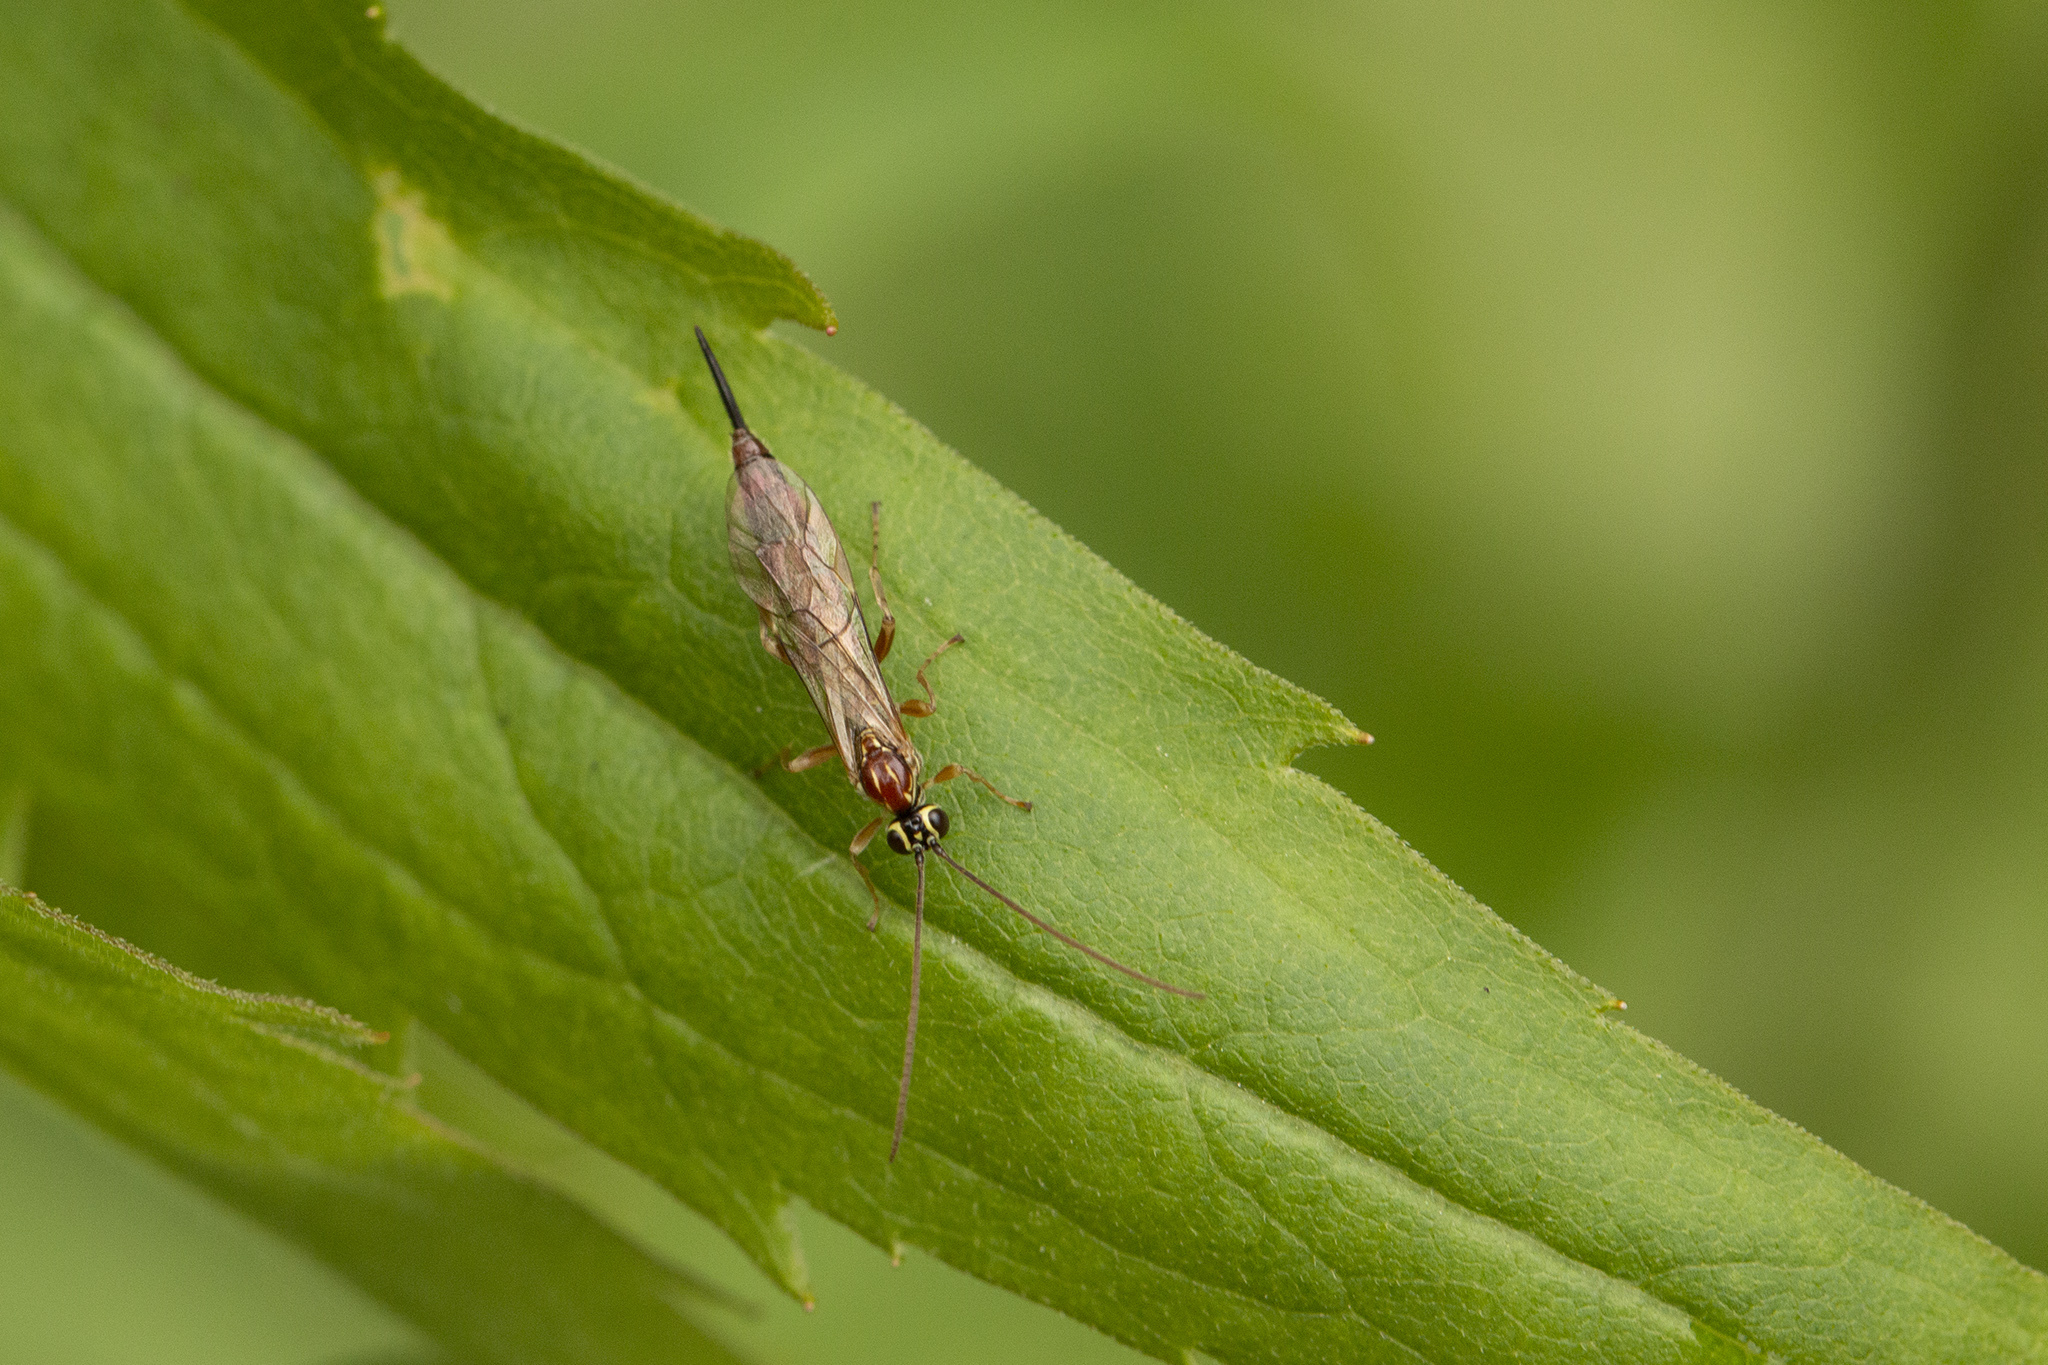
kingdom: Animalia
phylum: Arthropoda
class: Insecta
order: Hymenoptera
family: Ichneumonidae
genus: Tromatobia
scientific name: Tromatobia lineatoria
